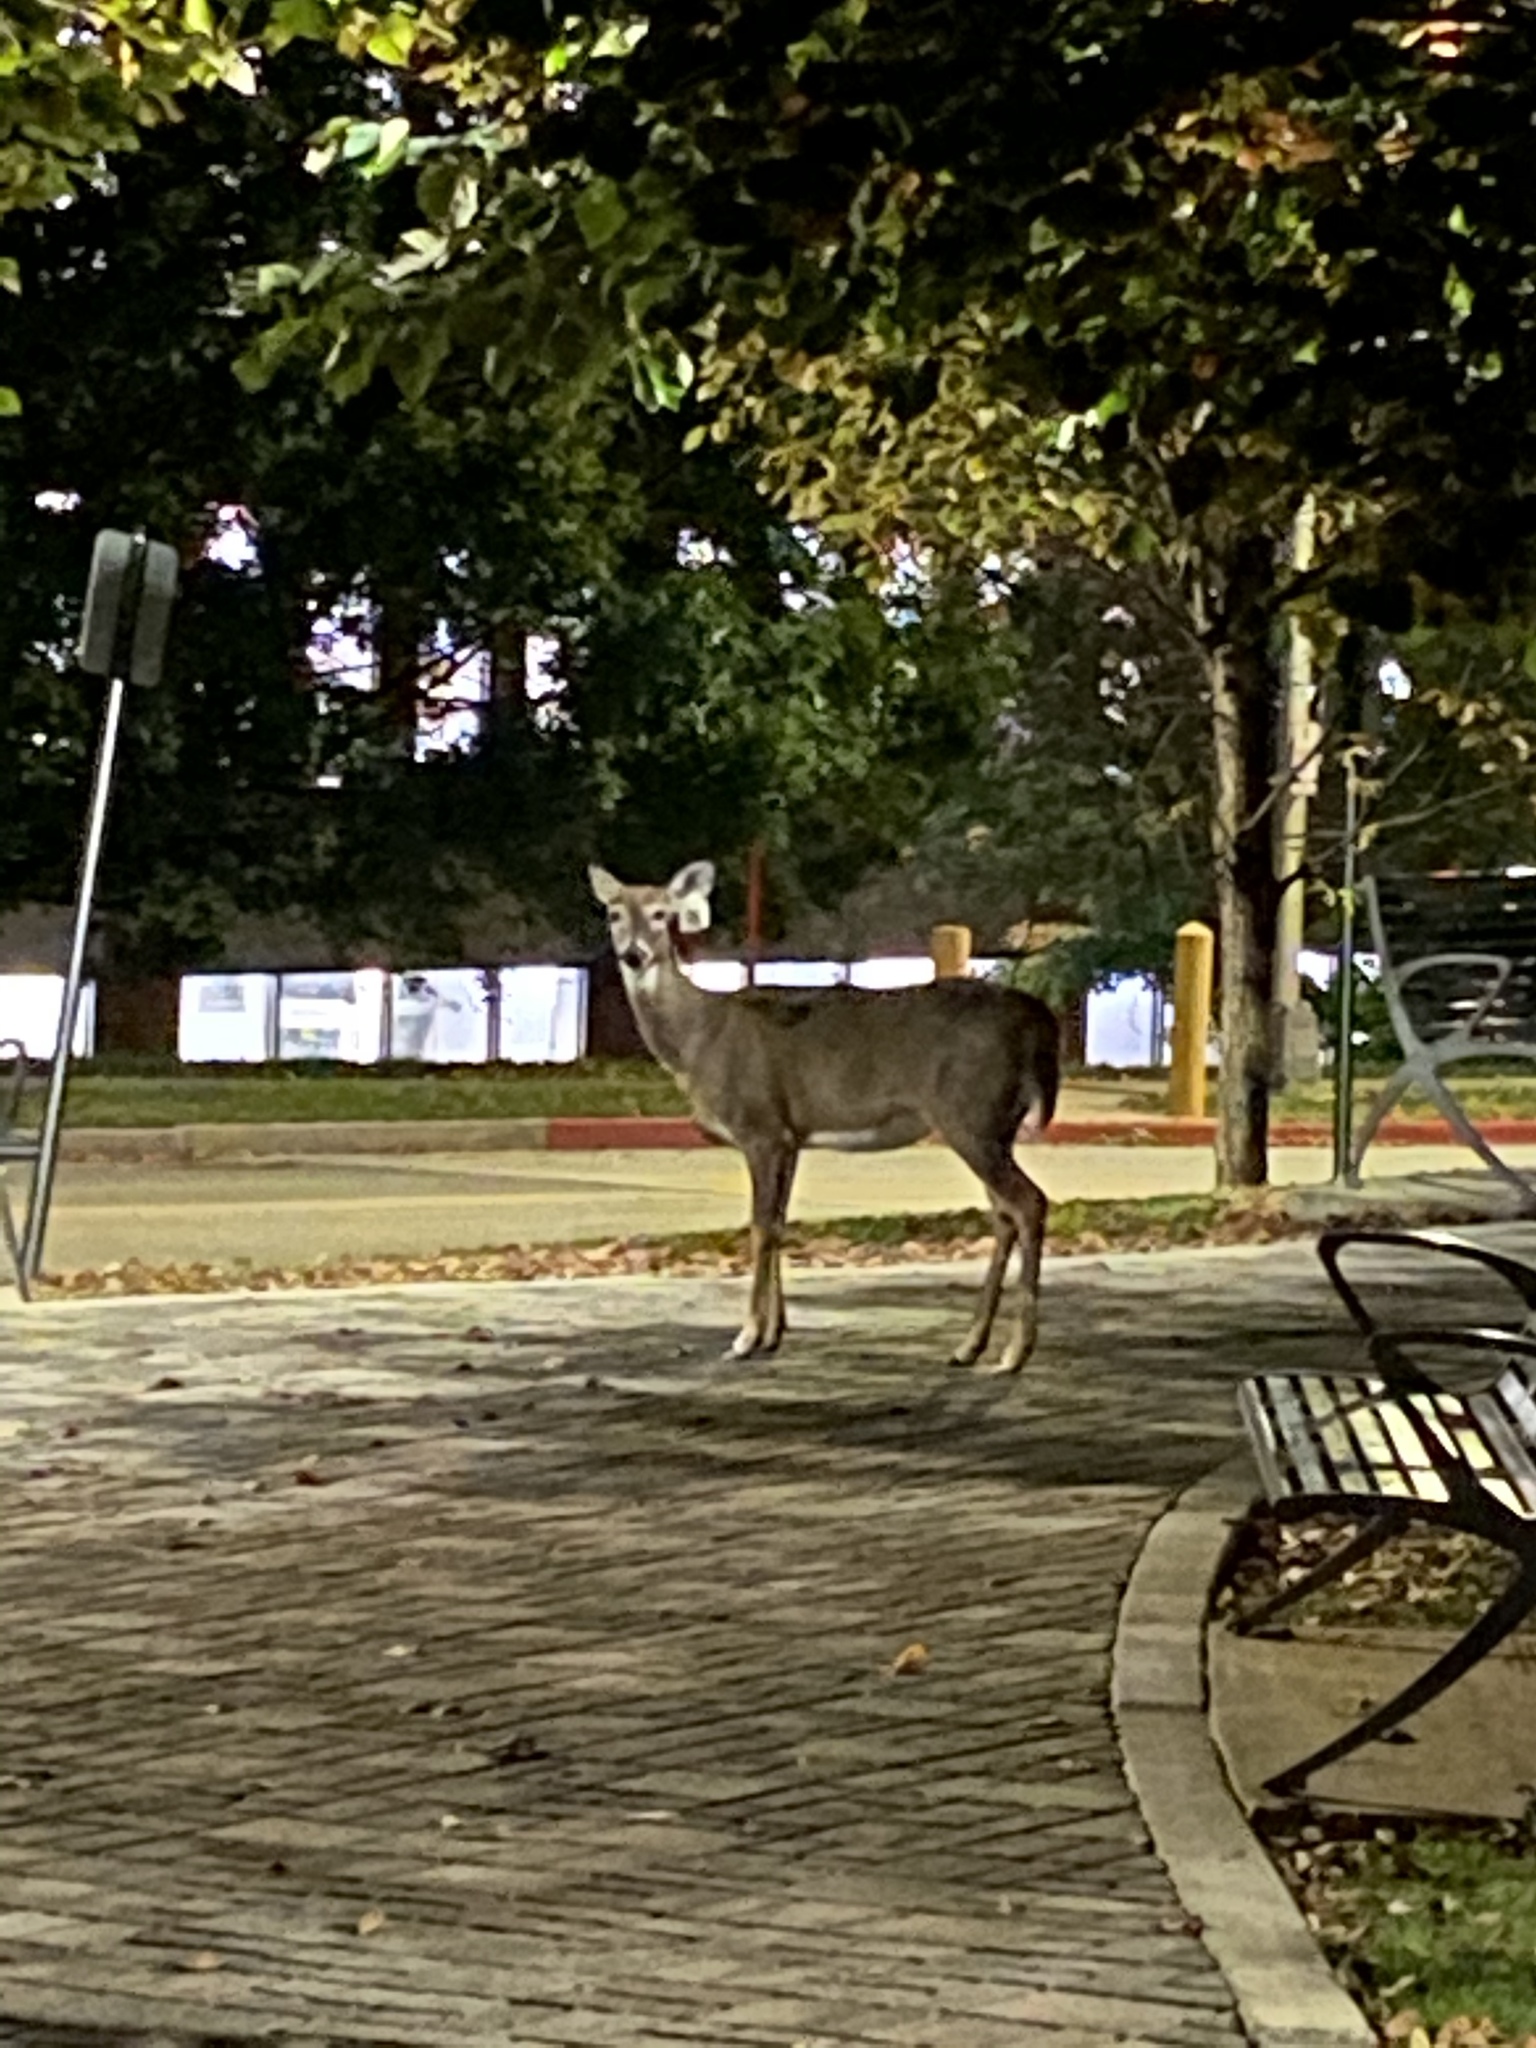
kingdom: Animalia
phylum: Chordata
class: Mammalia
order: Artiodactyla
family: Cervidae
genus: Odocoileus
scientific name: Odocoileus virginianus
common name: White-tailed deer
